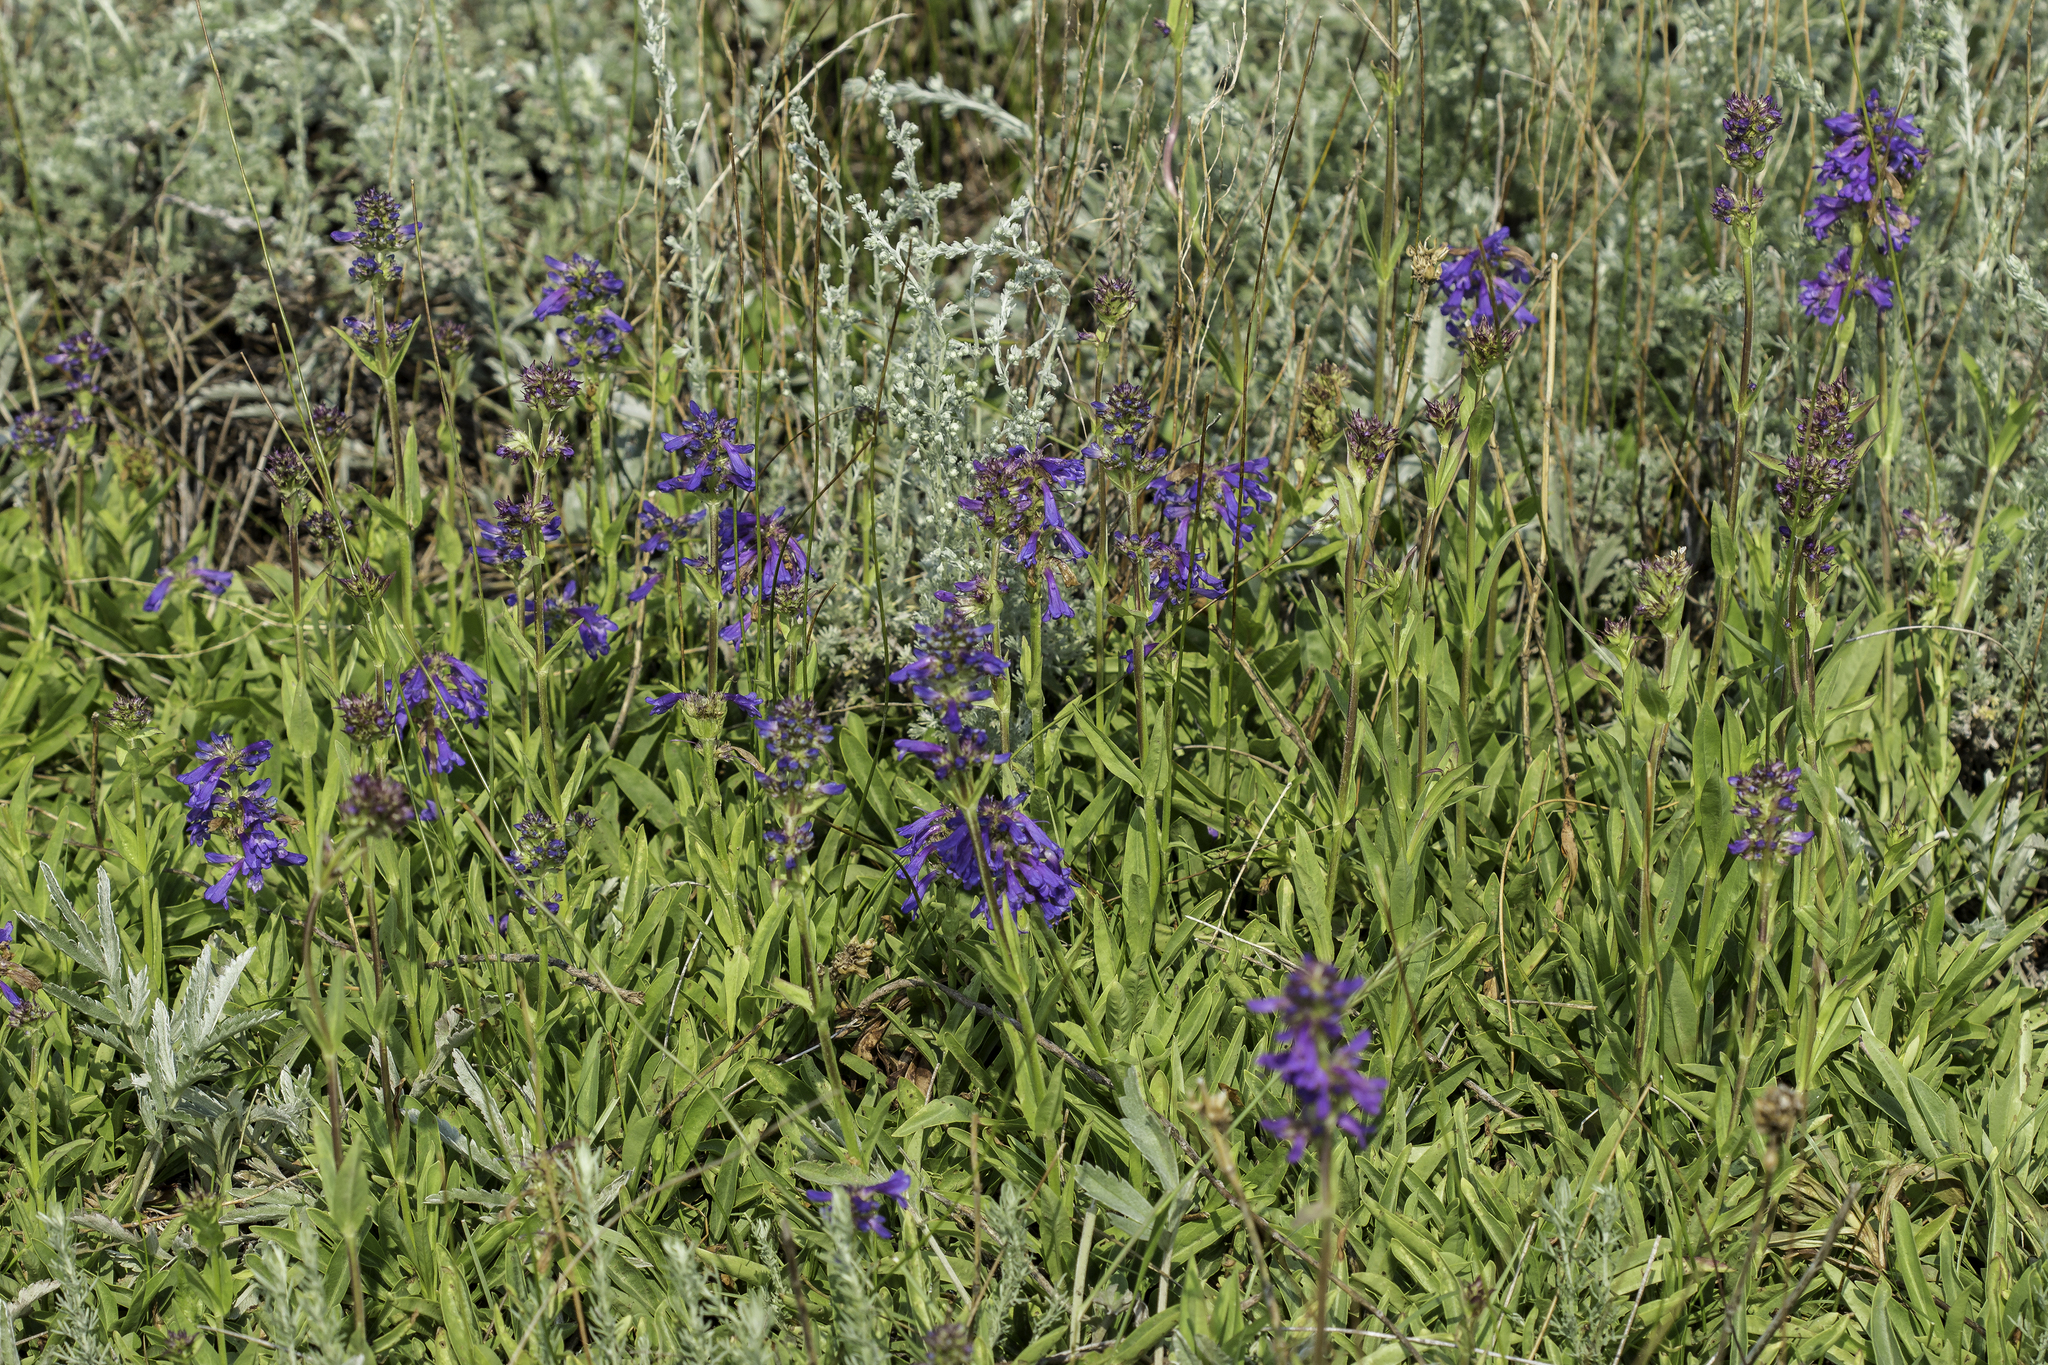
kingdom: Plantae
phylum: Tracheophyta
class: Magnoliopsida
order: Lamiales
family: Plantaginaceae
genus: Penstemon
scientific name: Penstemon rydbergii
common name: Rydberg's beardtongue
